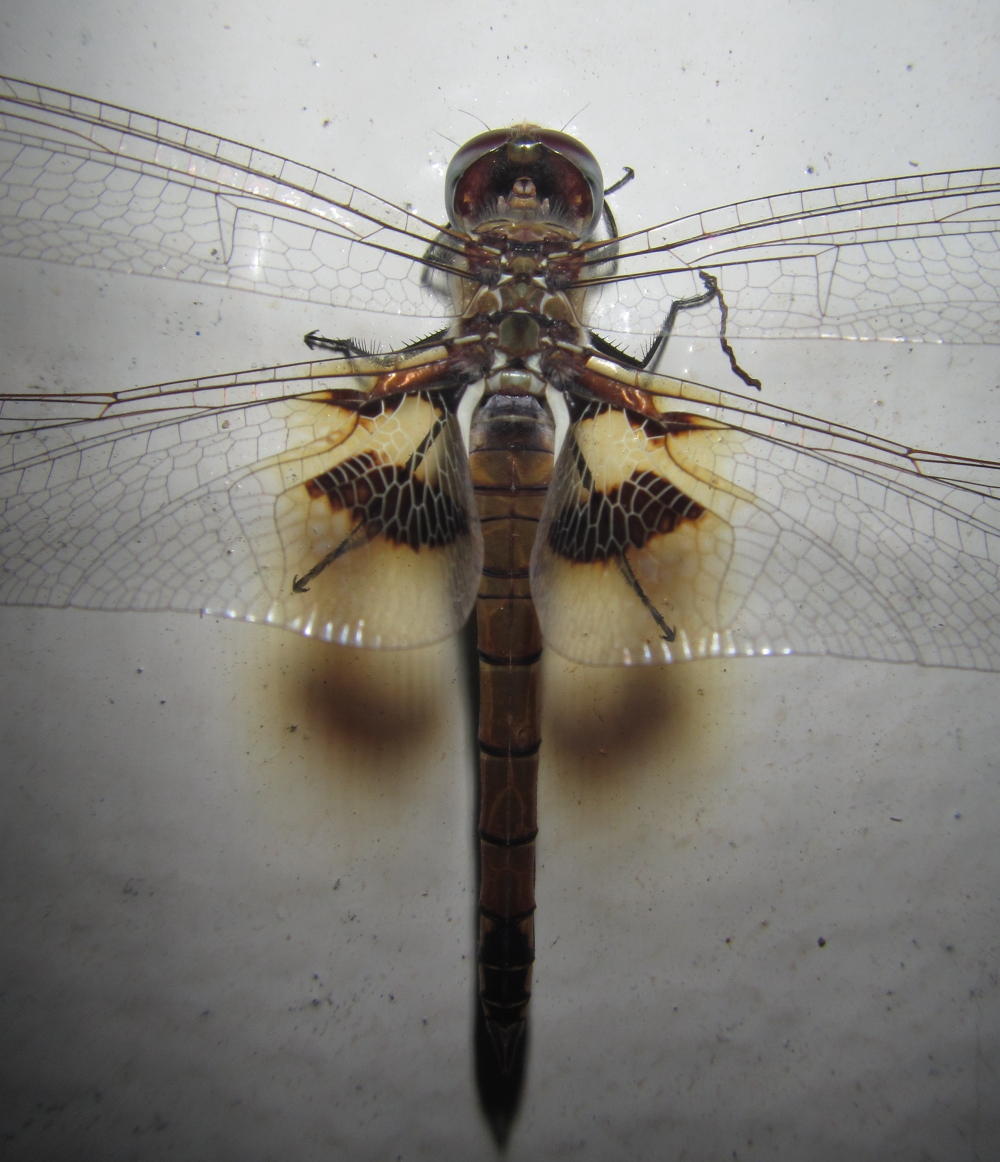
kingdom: Animalia
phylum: Arthropoda
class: Insecta
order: Odonata
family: Libellulidae
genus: Tramea
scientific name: Tramea basilaris
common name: Keyhole glider
